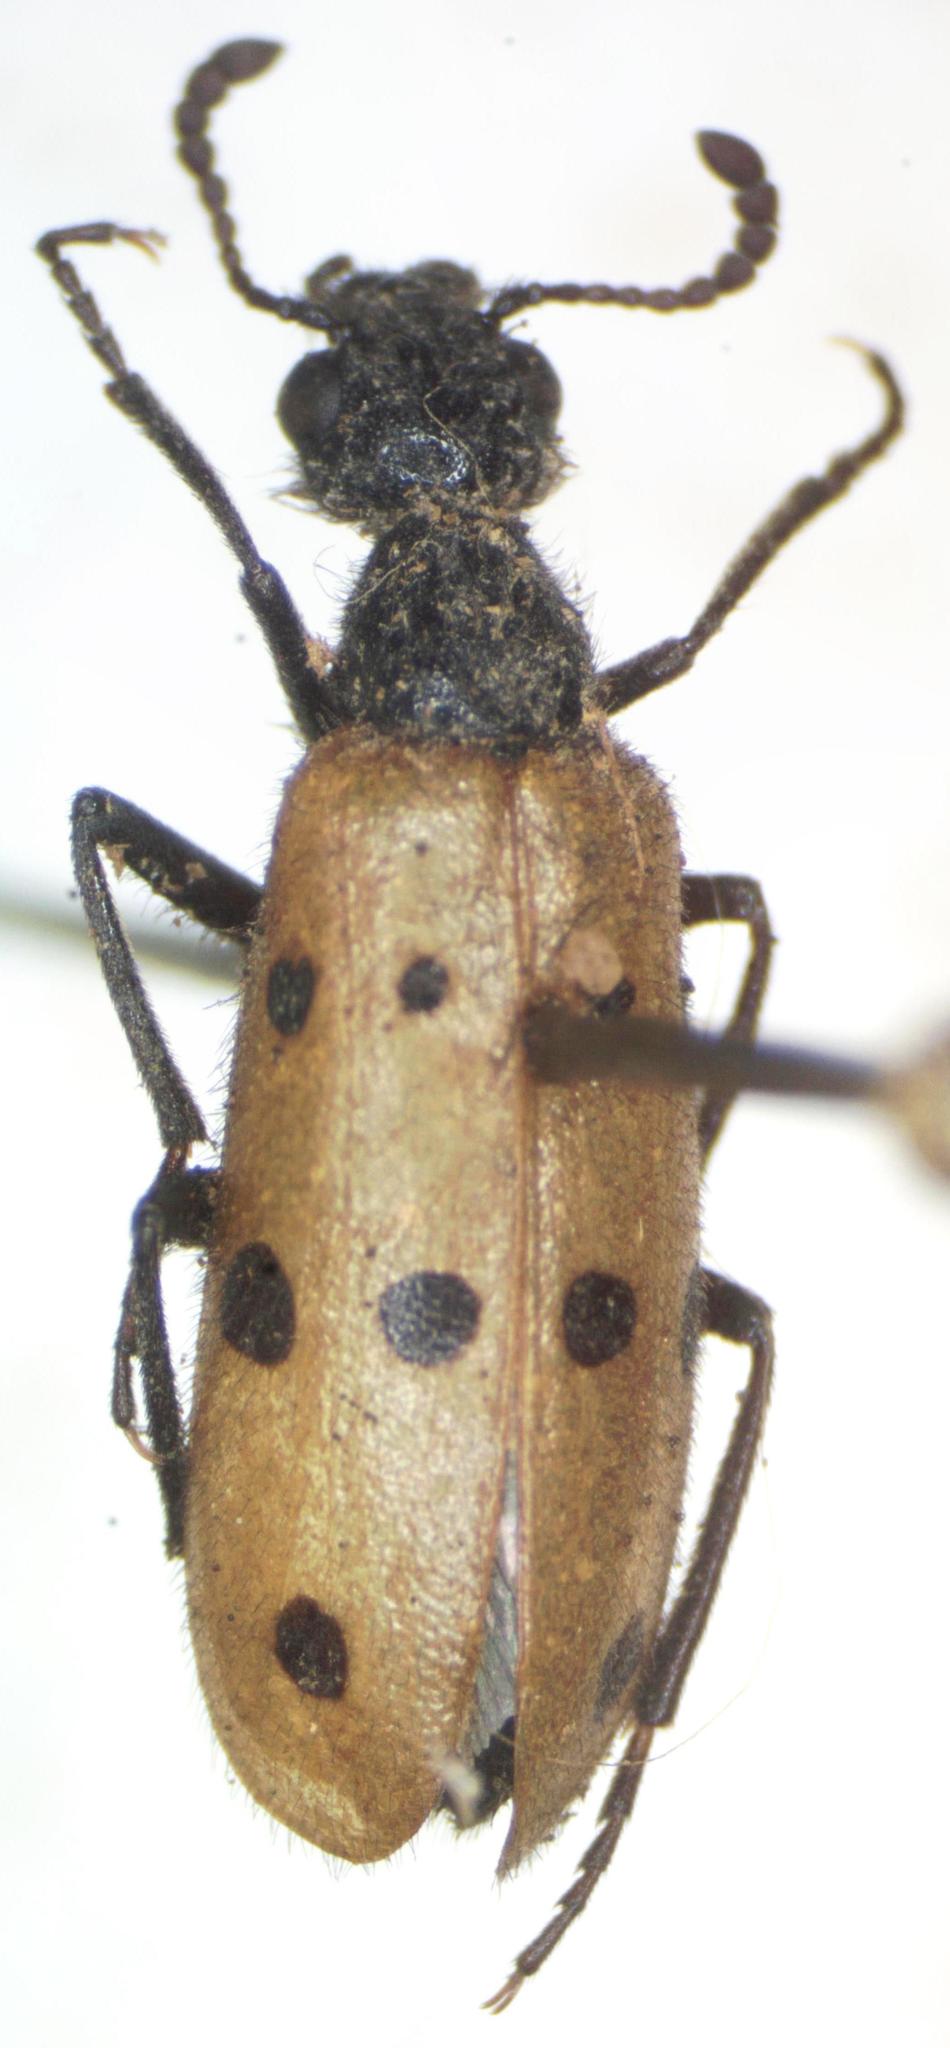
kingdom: Animalia
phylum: Arthropoda
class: Insecta
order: Coleoptera
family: Meloidae
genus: Mylabris
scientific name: Mylabris fabricii
